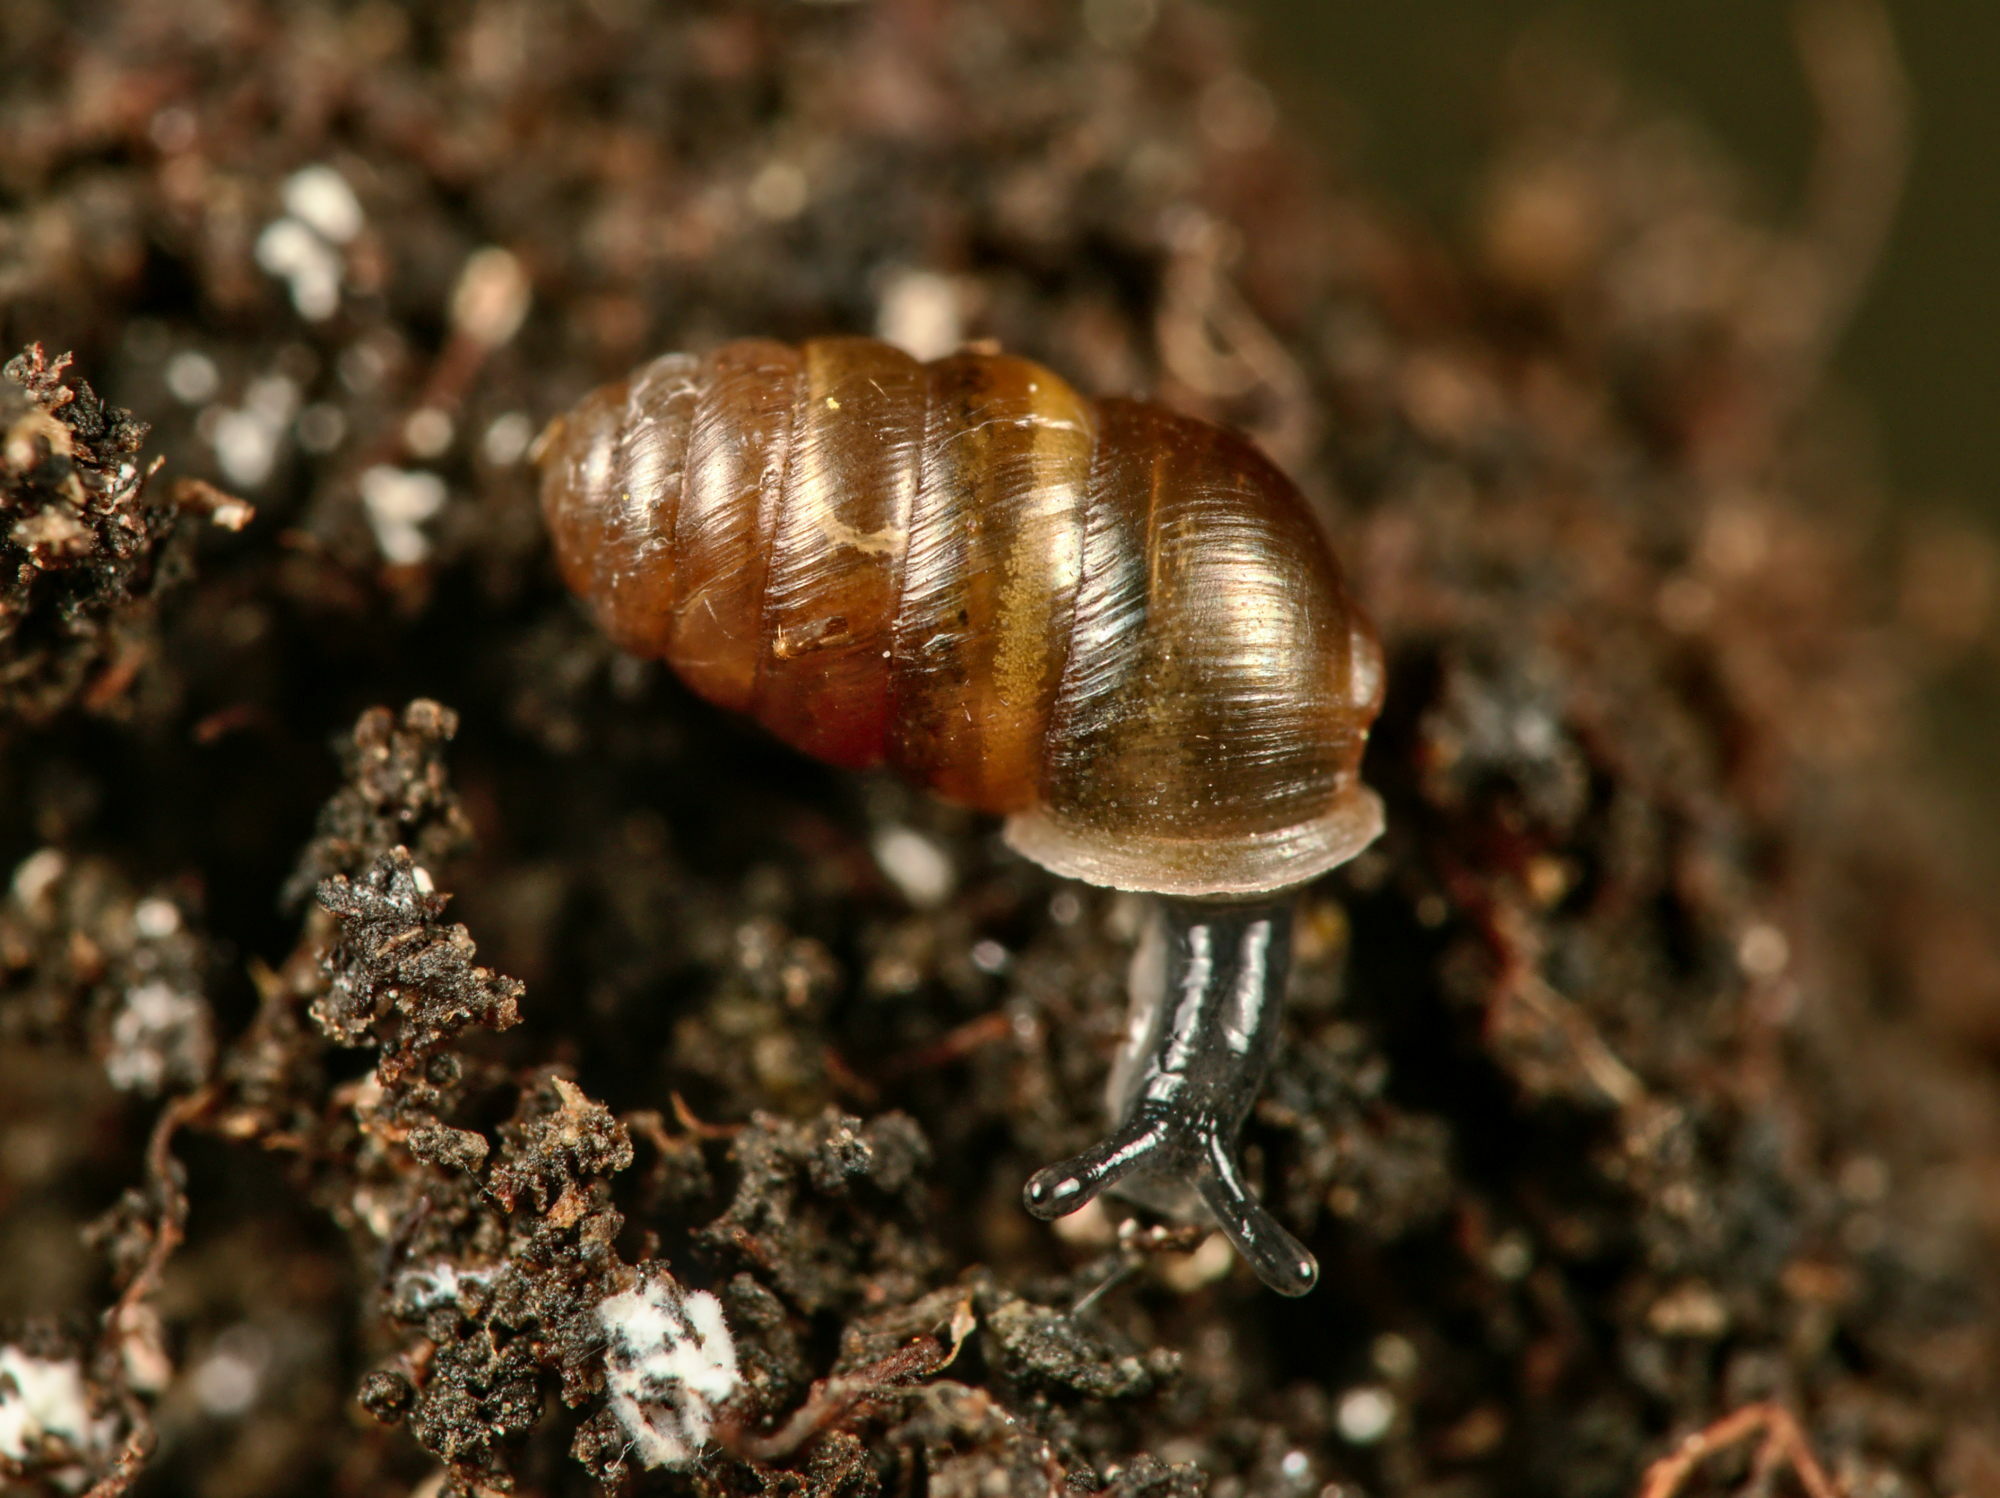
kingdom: Animalia
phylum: Mollusca
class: Gastropoda
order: Stylommatophora
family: Lauriidae
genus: Lauria
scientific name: Lauria cylindracea
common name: Common chrysalis snail
